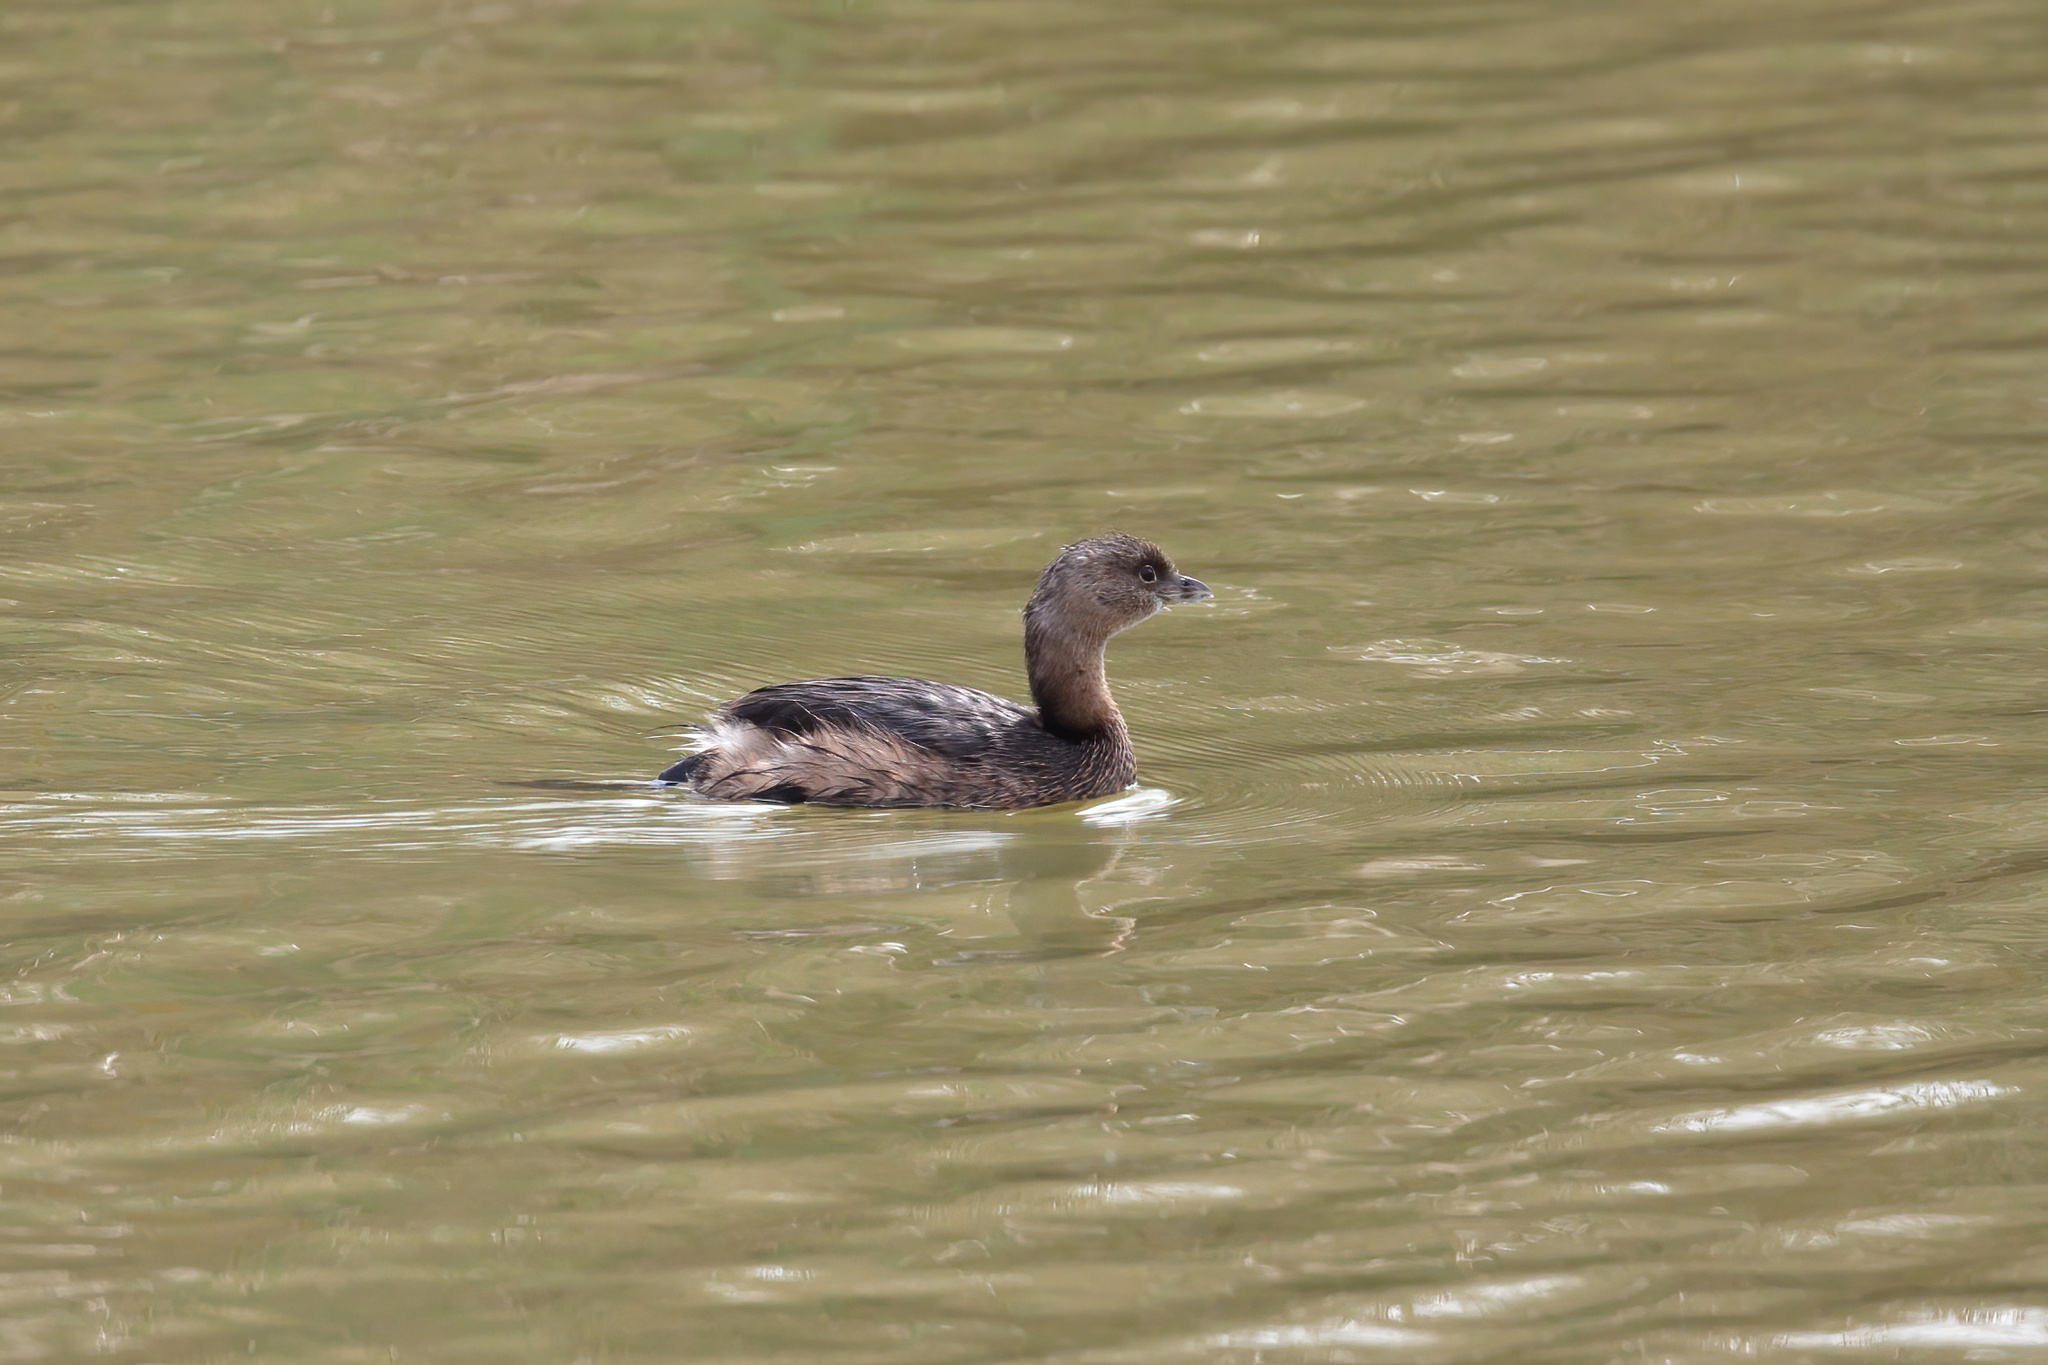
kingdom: Animalia
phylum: Chordata
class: Aves
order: Podicipediformes
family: Podicipedidae
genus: Podilymbus
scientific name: Podilymbus podiceps
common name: Pied-billed grebe
